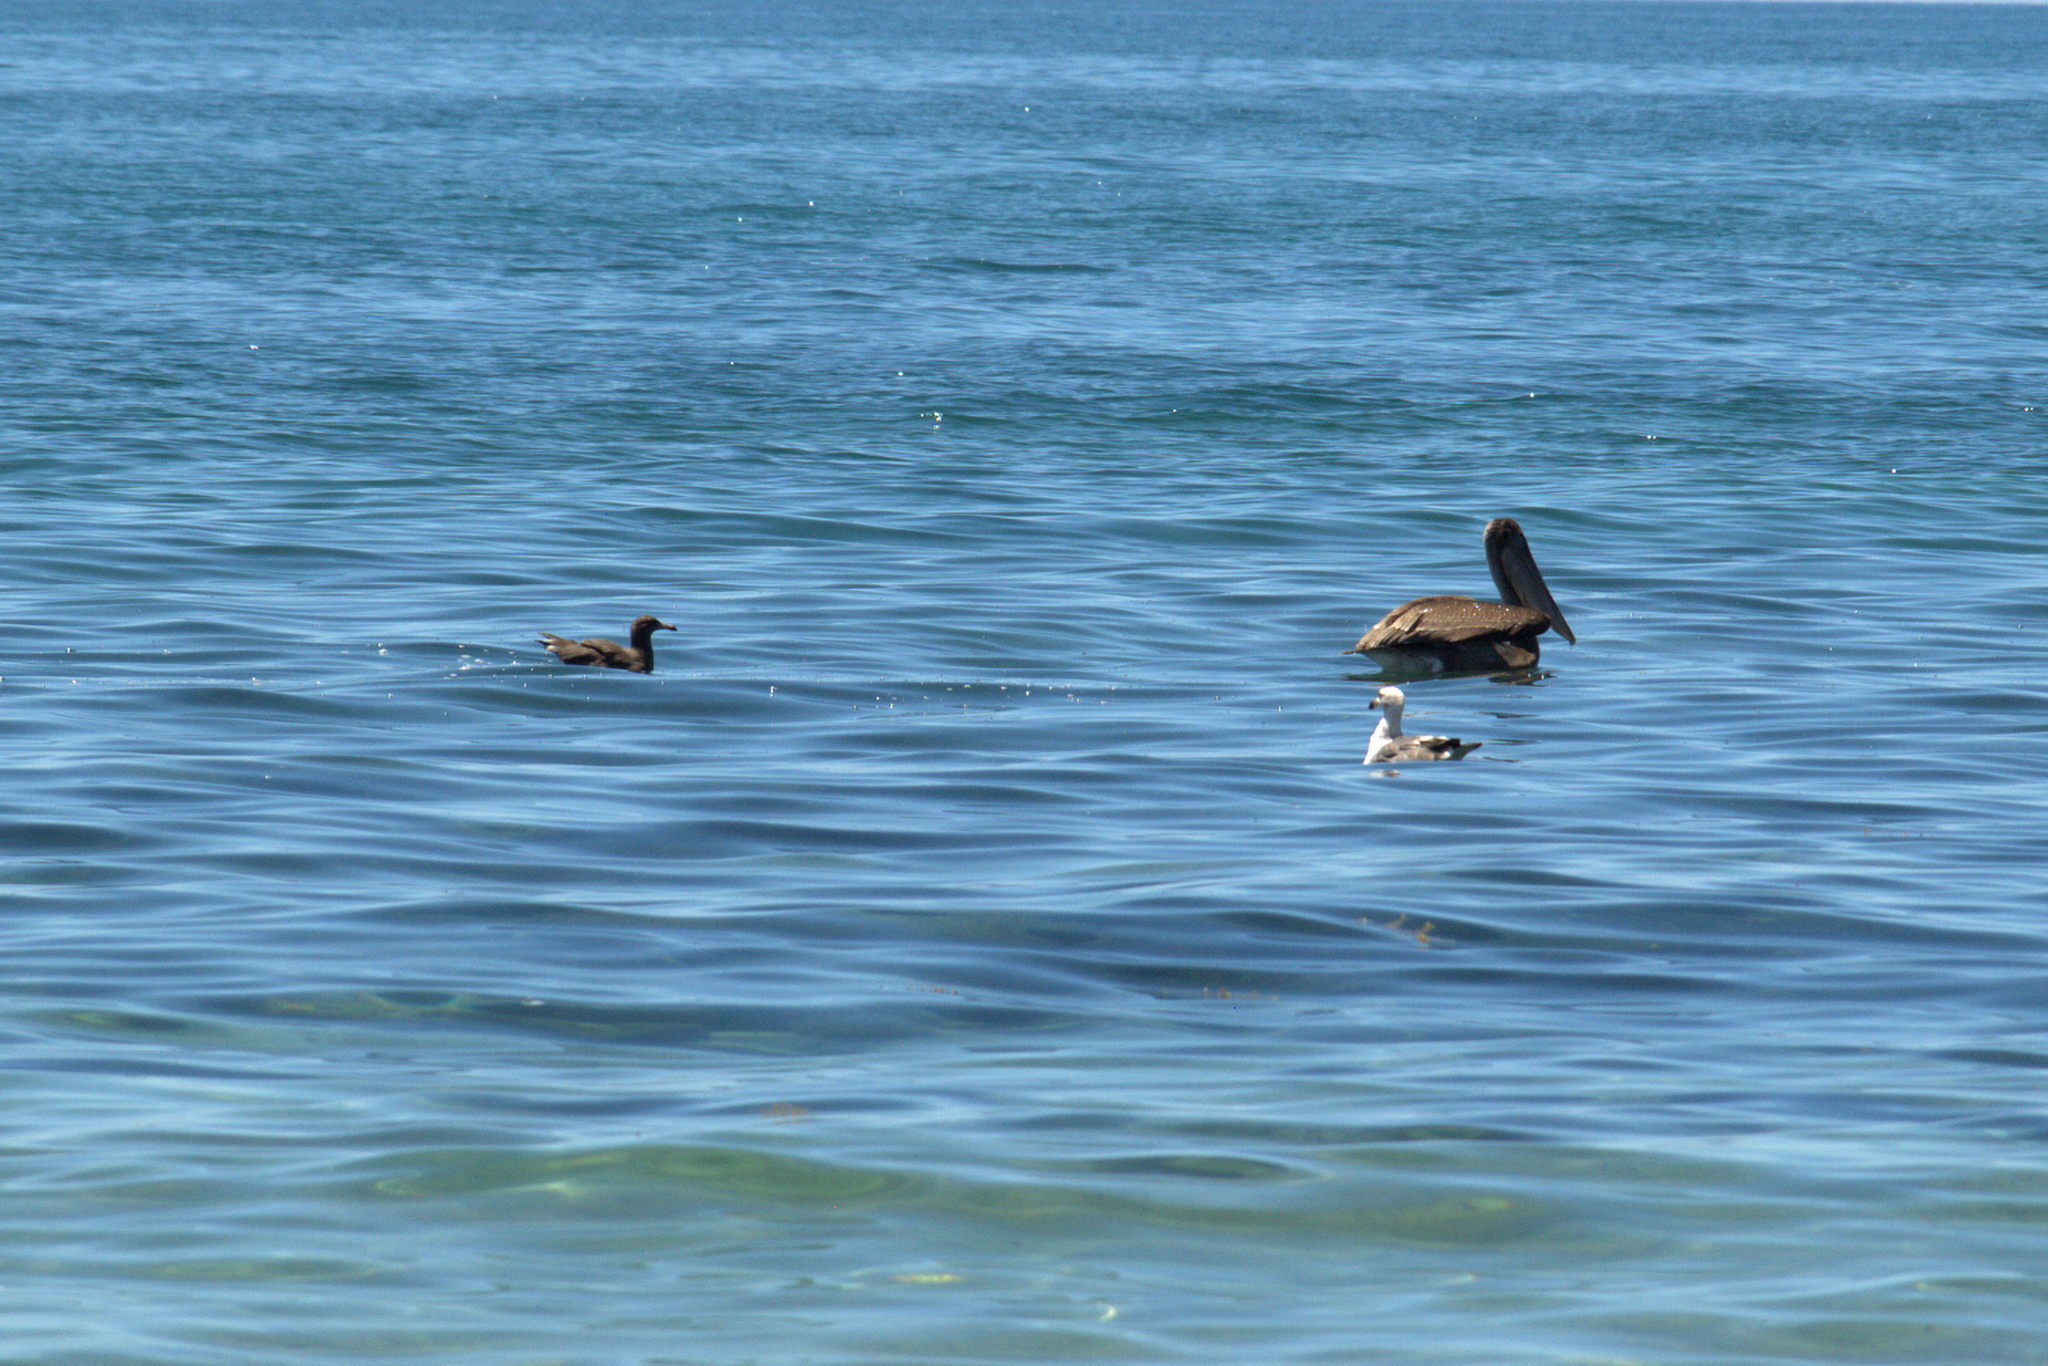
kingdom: Animalia
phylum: Chordata
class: Aves
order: Charadriiformes
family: Laridae
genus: Larus
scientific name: Larus livens
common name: Yellow-footed gull
